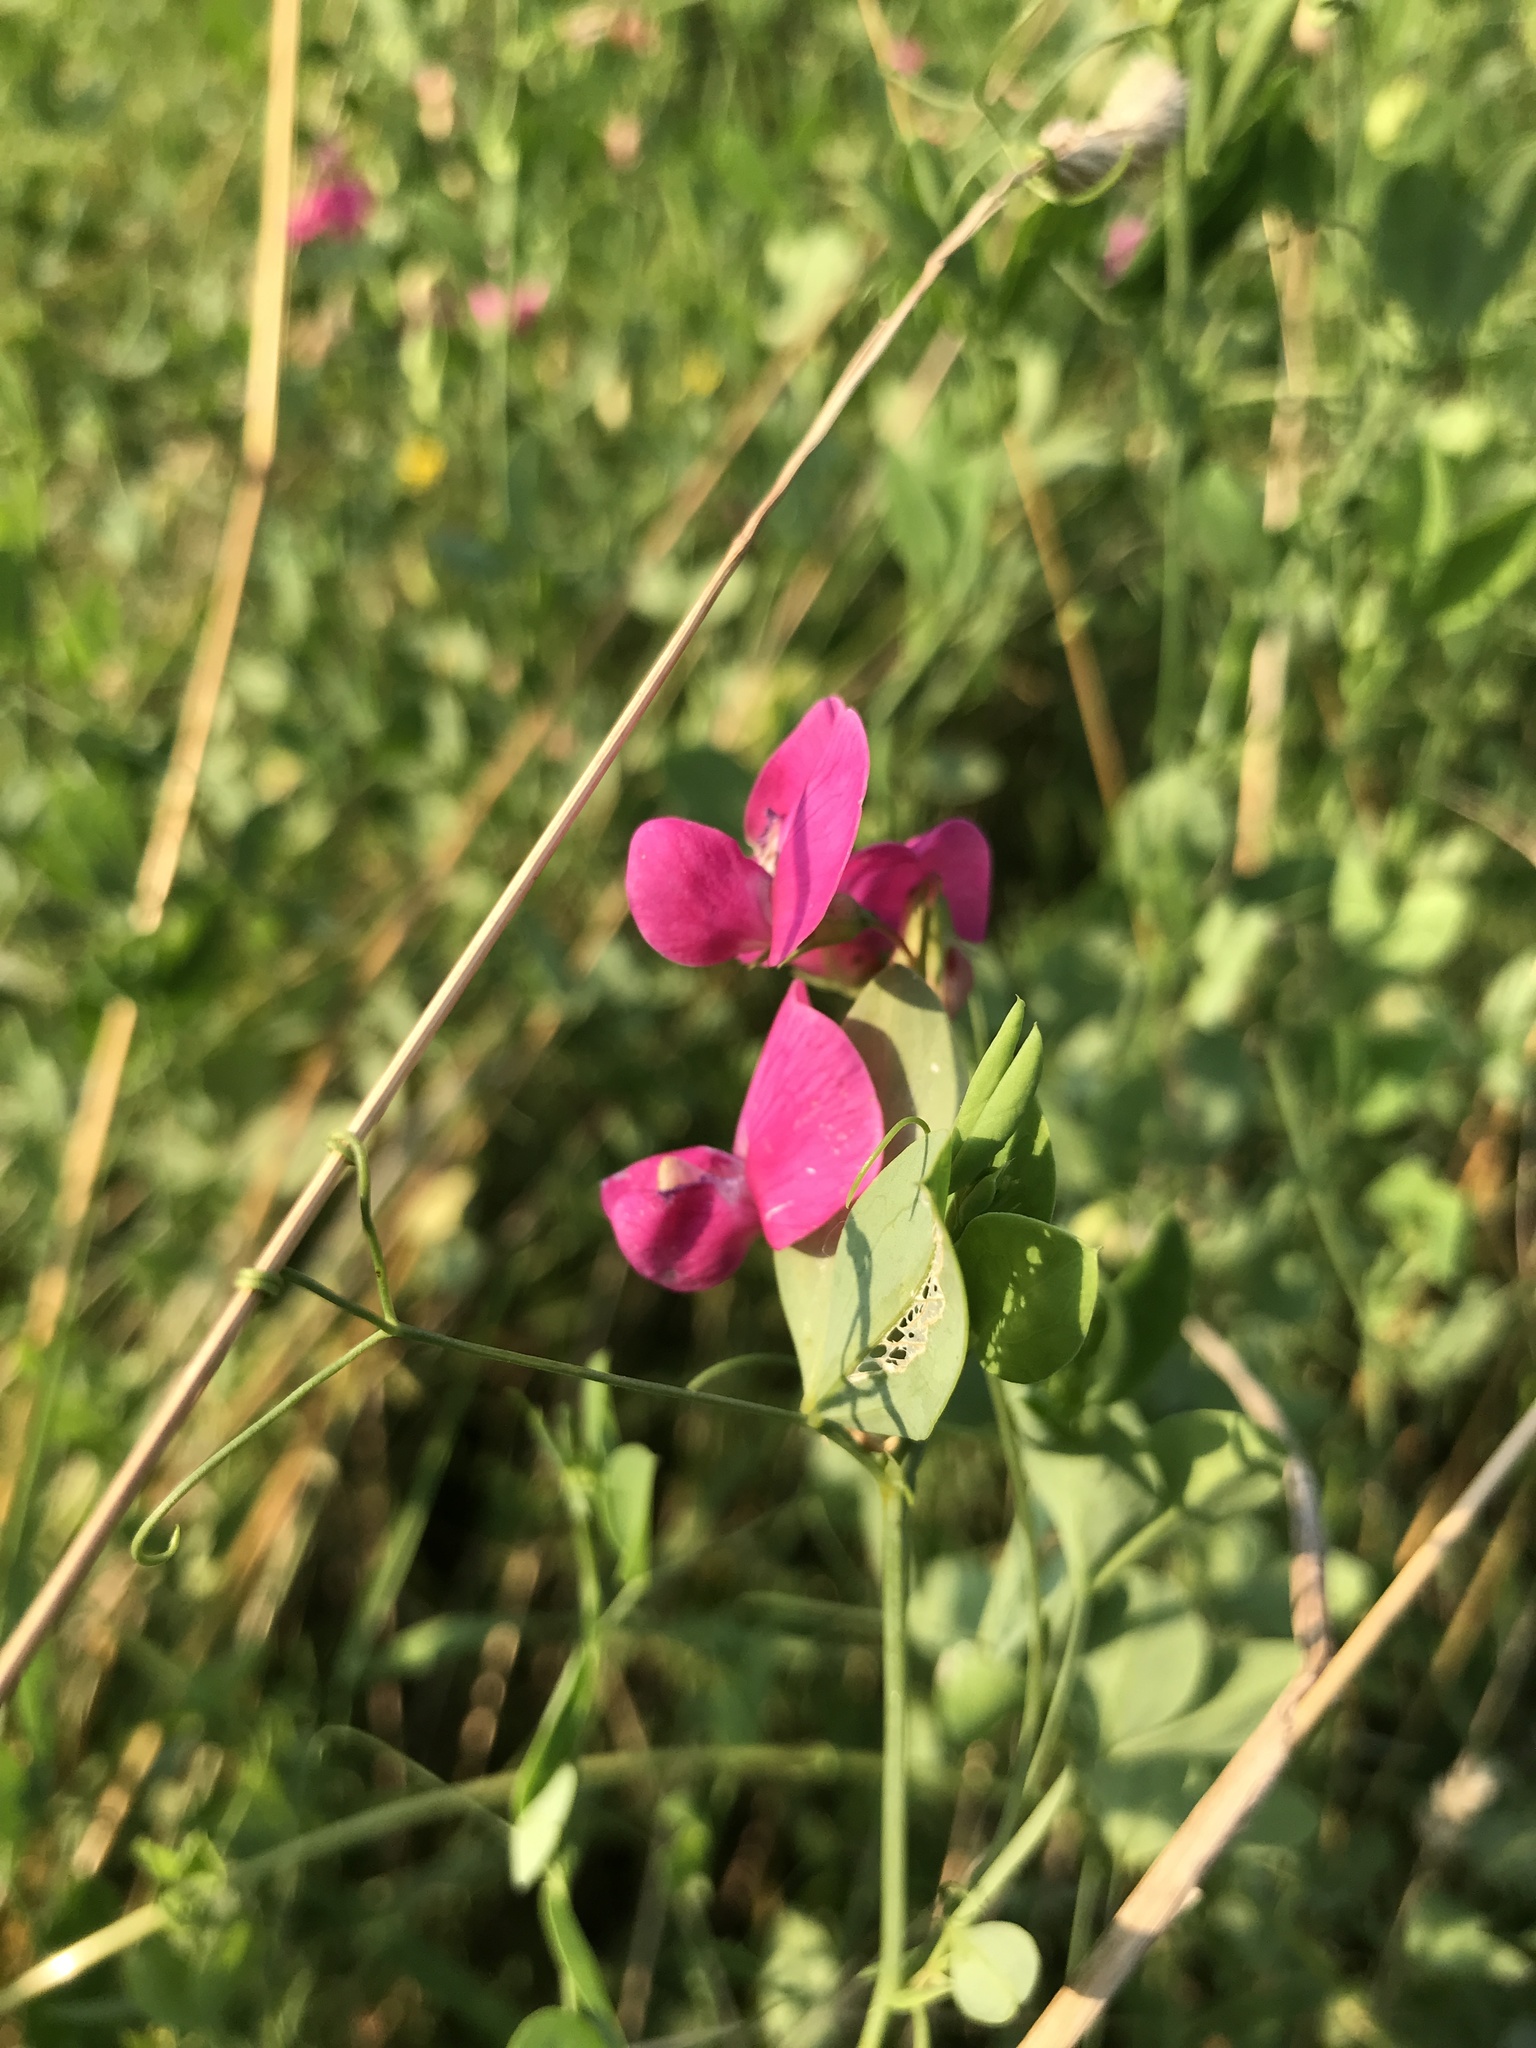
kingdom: Plantae
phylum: Tracheophyta
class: Magnoliopsida
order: Fabales
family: Fabaceae
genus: Lathyrus
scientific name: Lathyrus tuberosus
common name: Tuberous pea
